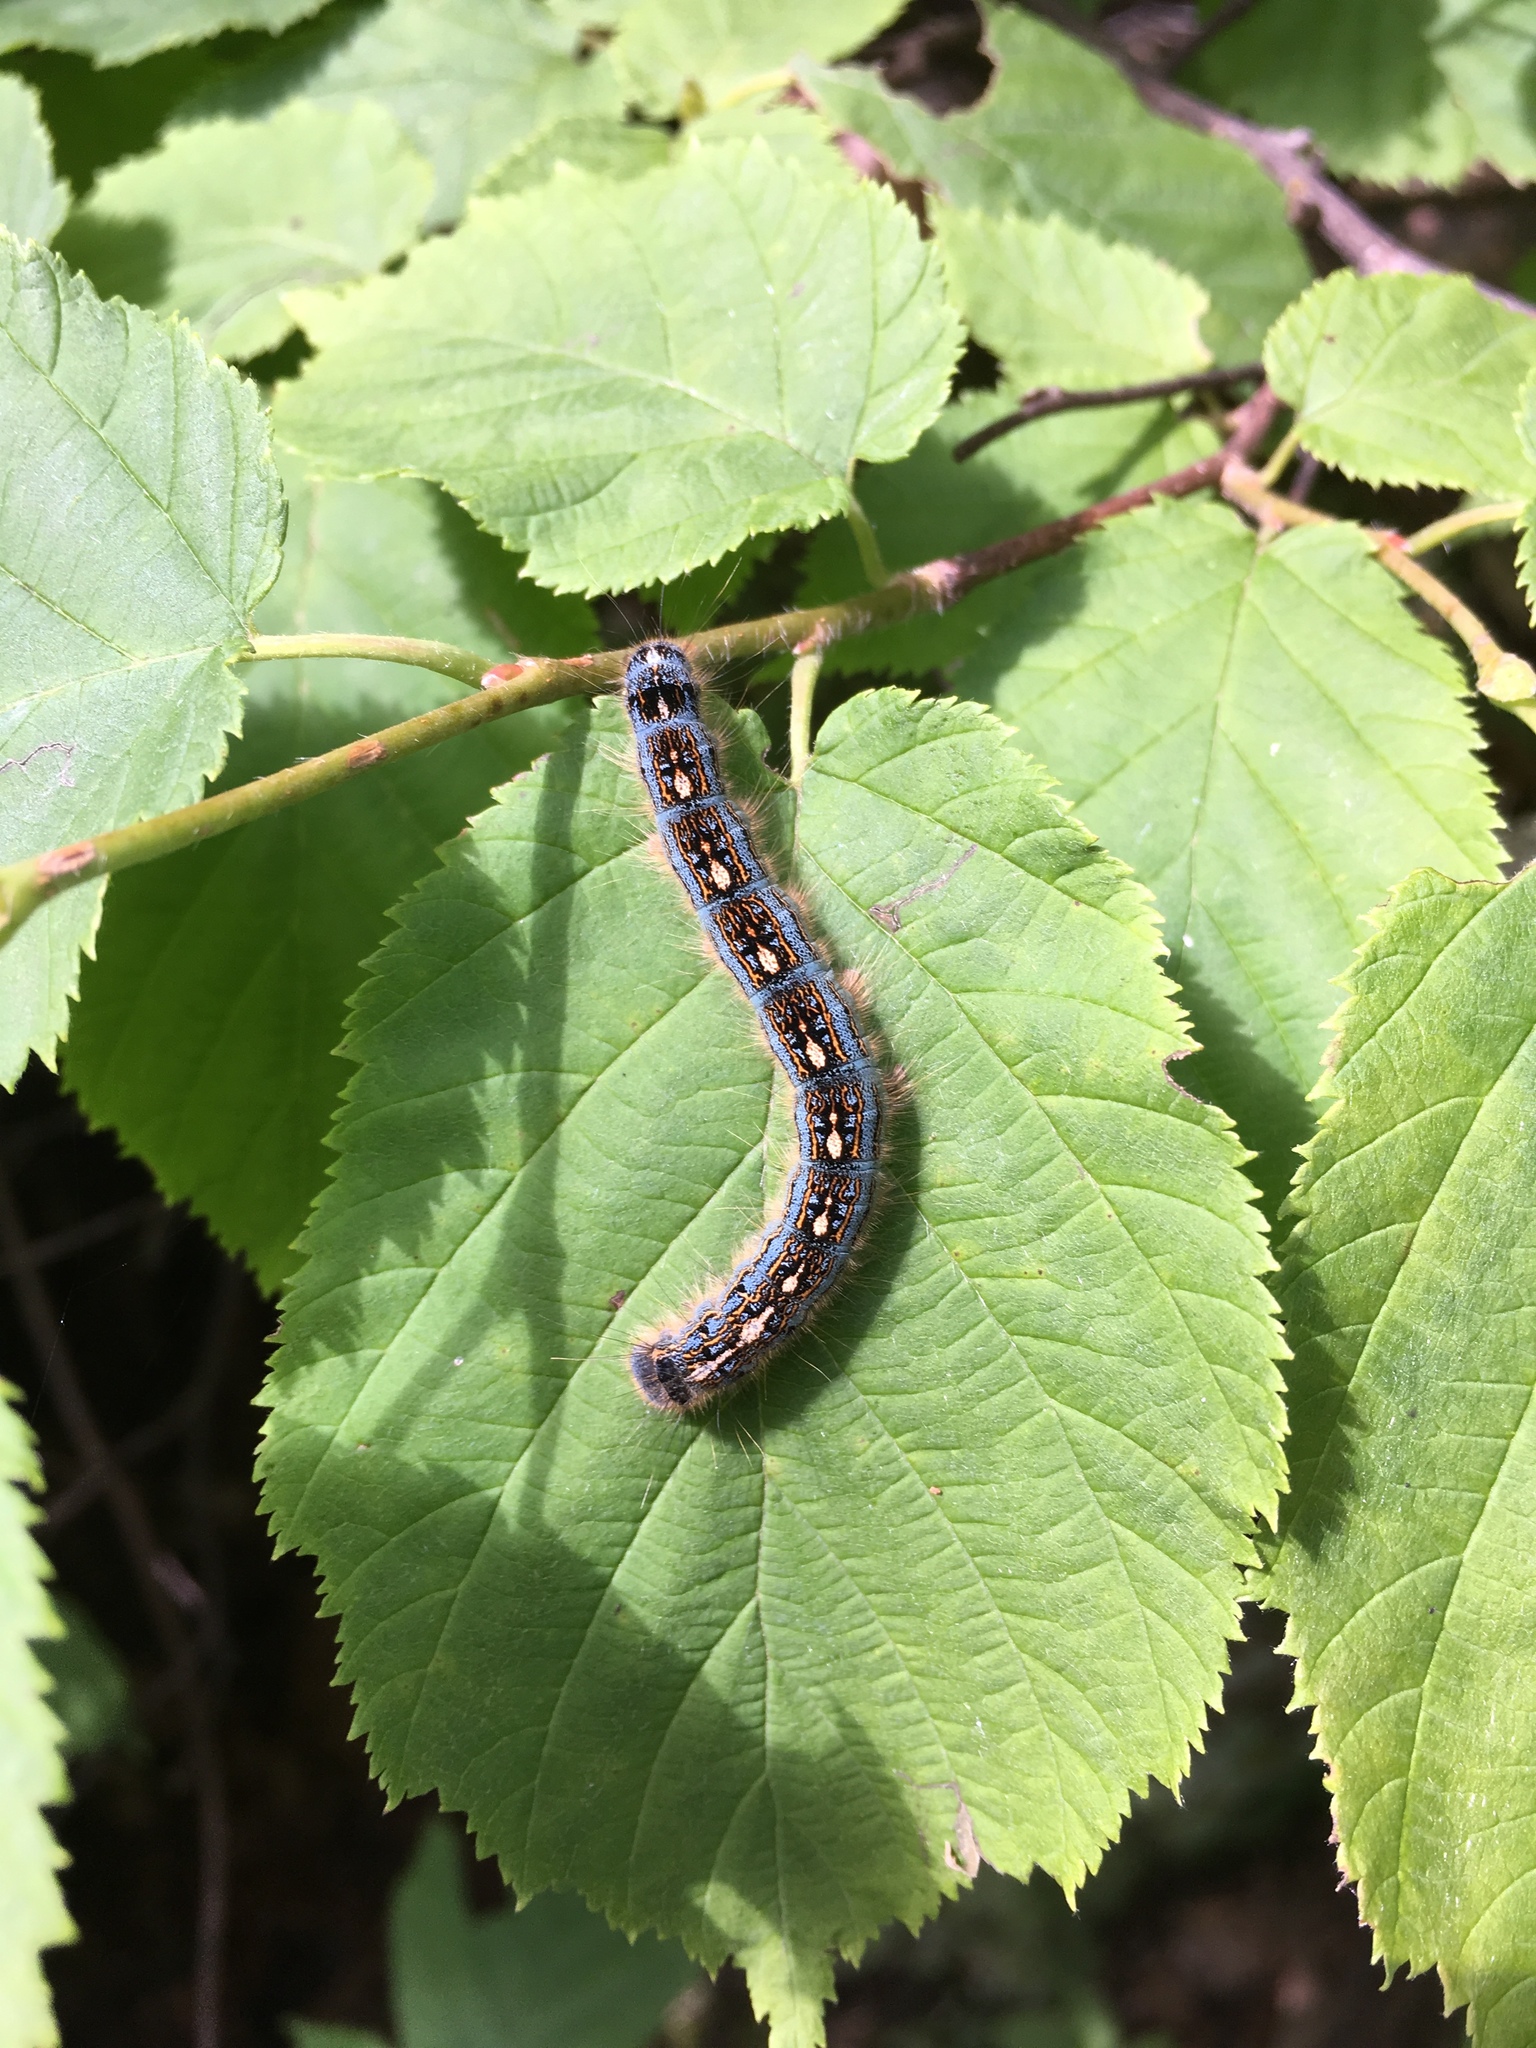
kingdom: Animalia
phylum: Arthropoda
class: Insecta
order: Lepidoptera
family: Lasiocampidae
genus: Malacosoma
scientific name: Malacosoma disstria
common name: Forest tent caterpillar
